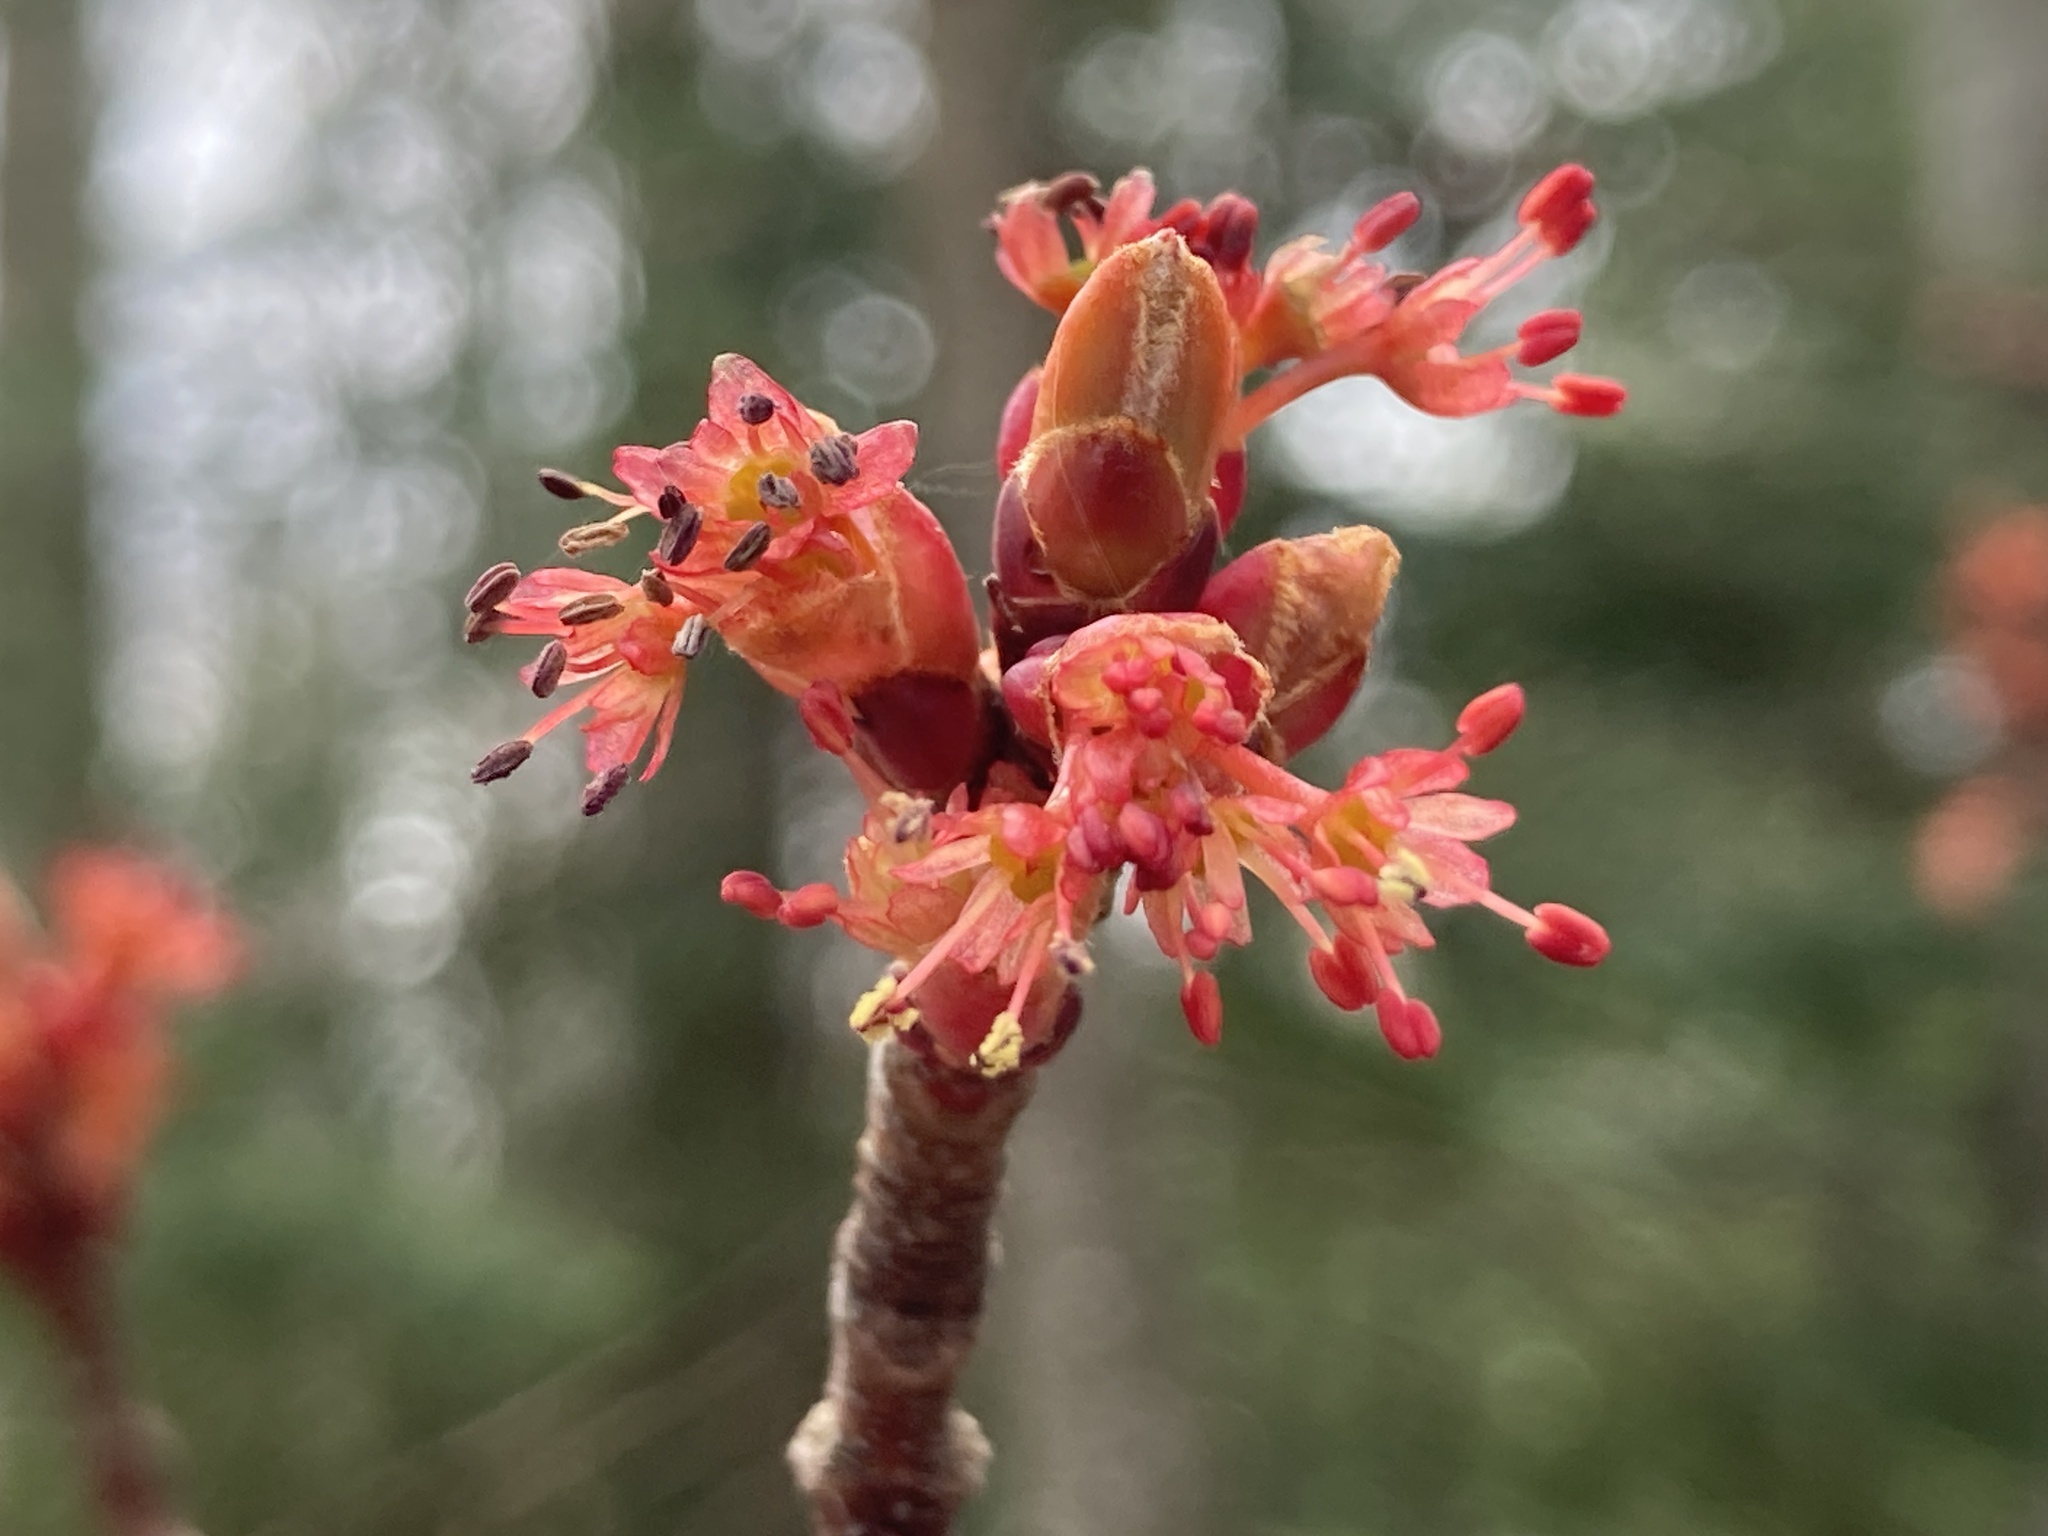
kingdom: Plantae
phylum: Tracheophyta
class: Magnoliopsida
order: Sapindales
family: Sapindaceae
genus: Acer
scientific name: Acer rubrum
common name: Red maple
